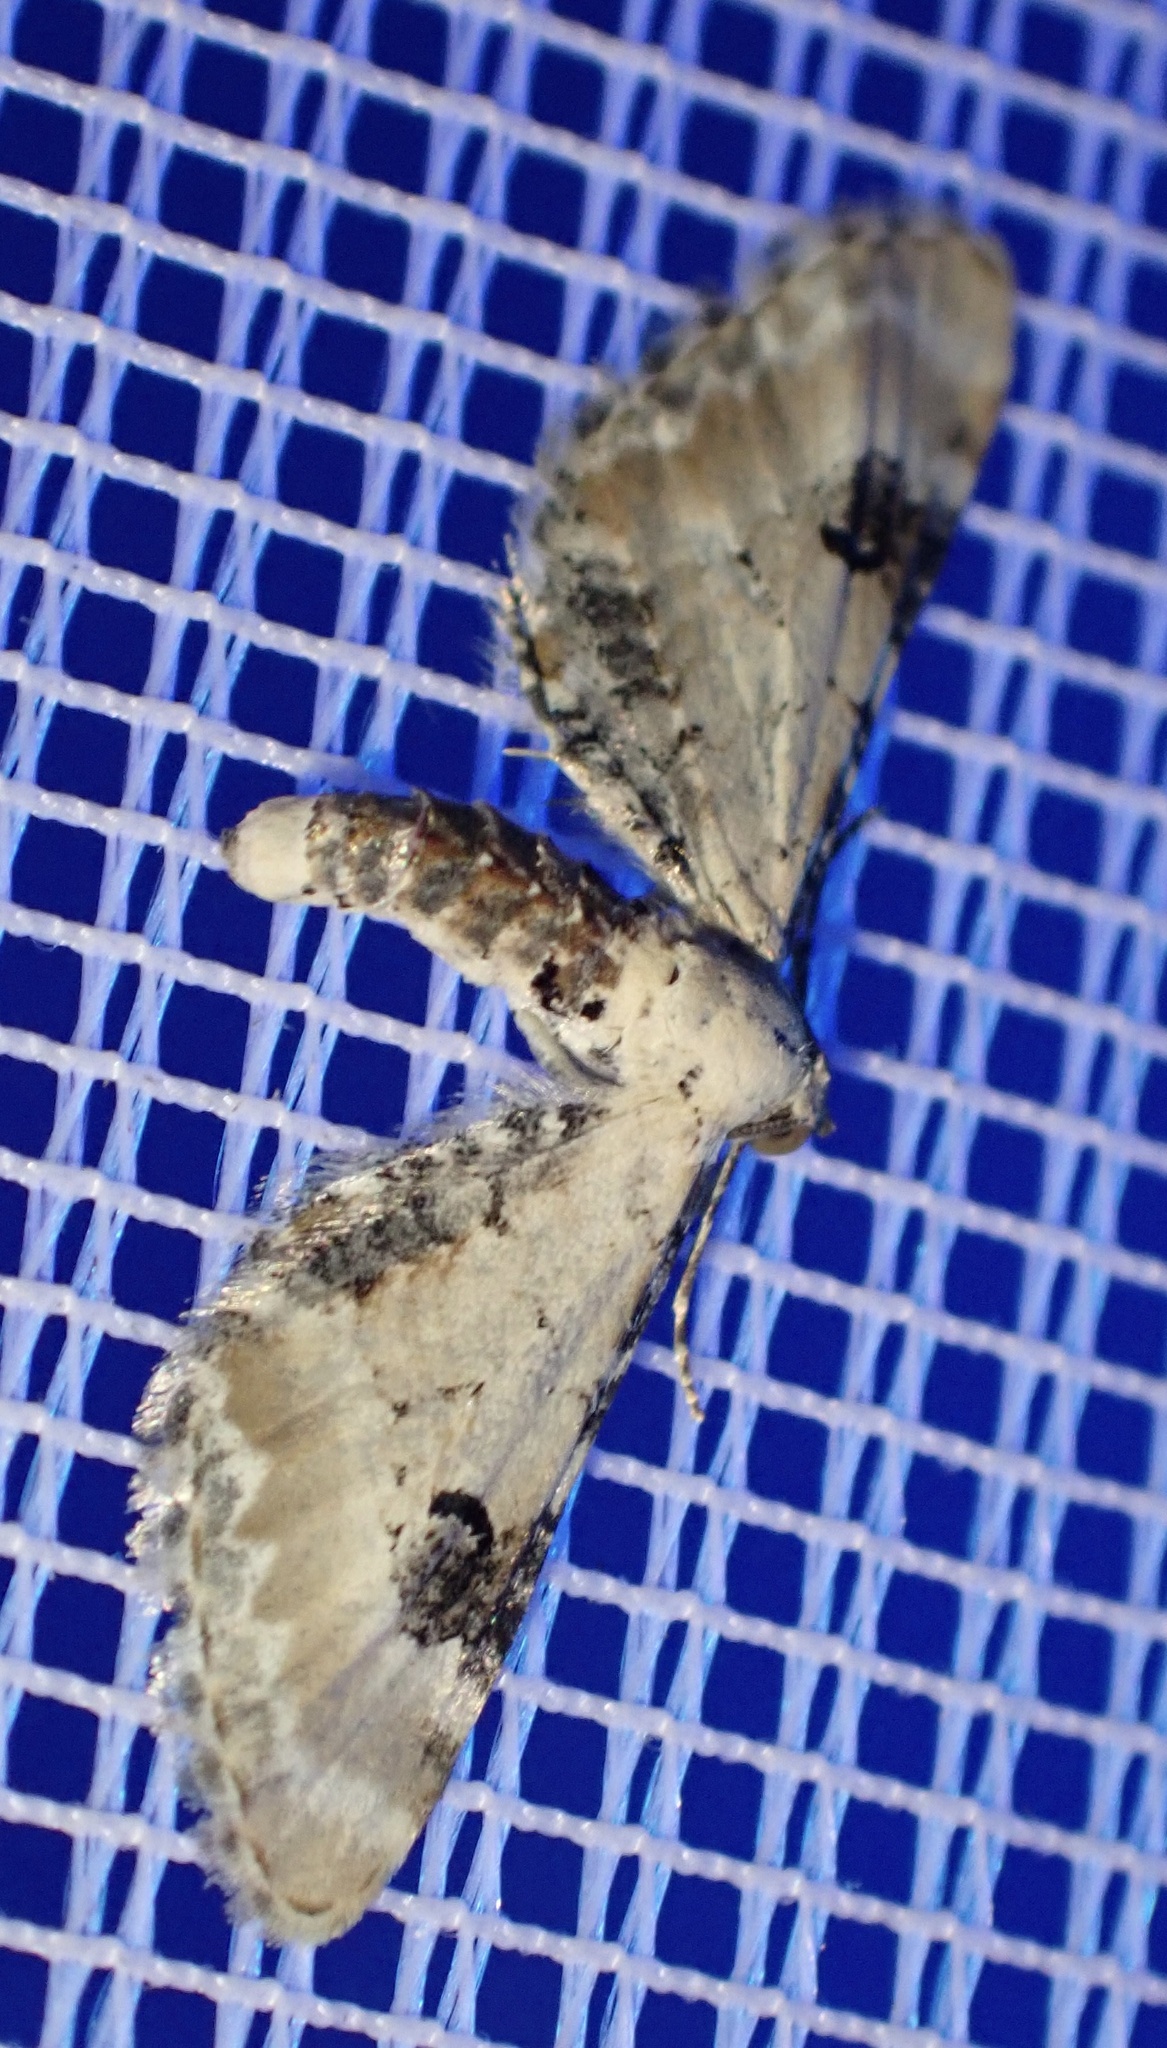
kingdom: Animalia
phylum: Arthropoda
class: Insecta
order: Lepidoptera
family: Geometridae
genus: Eupithecia
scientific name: Eupithecia centaureata
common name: Lime-speck pug
